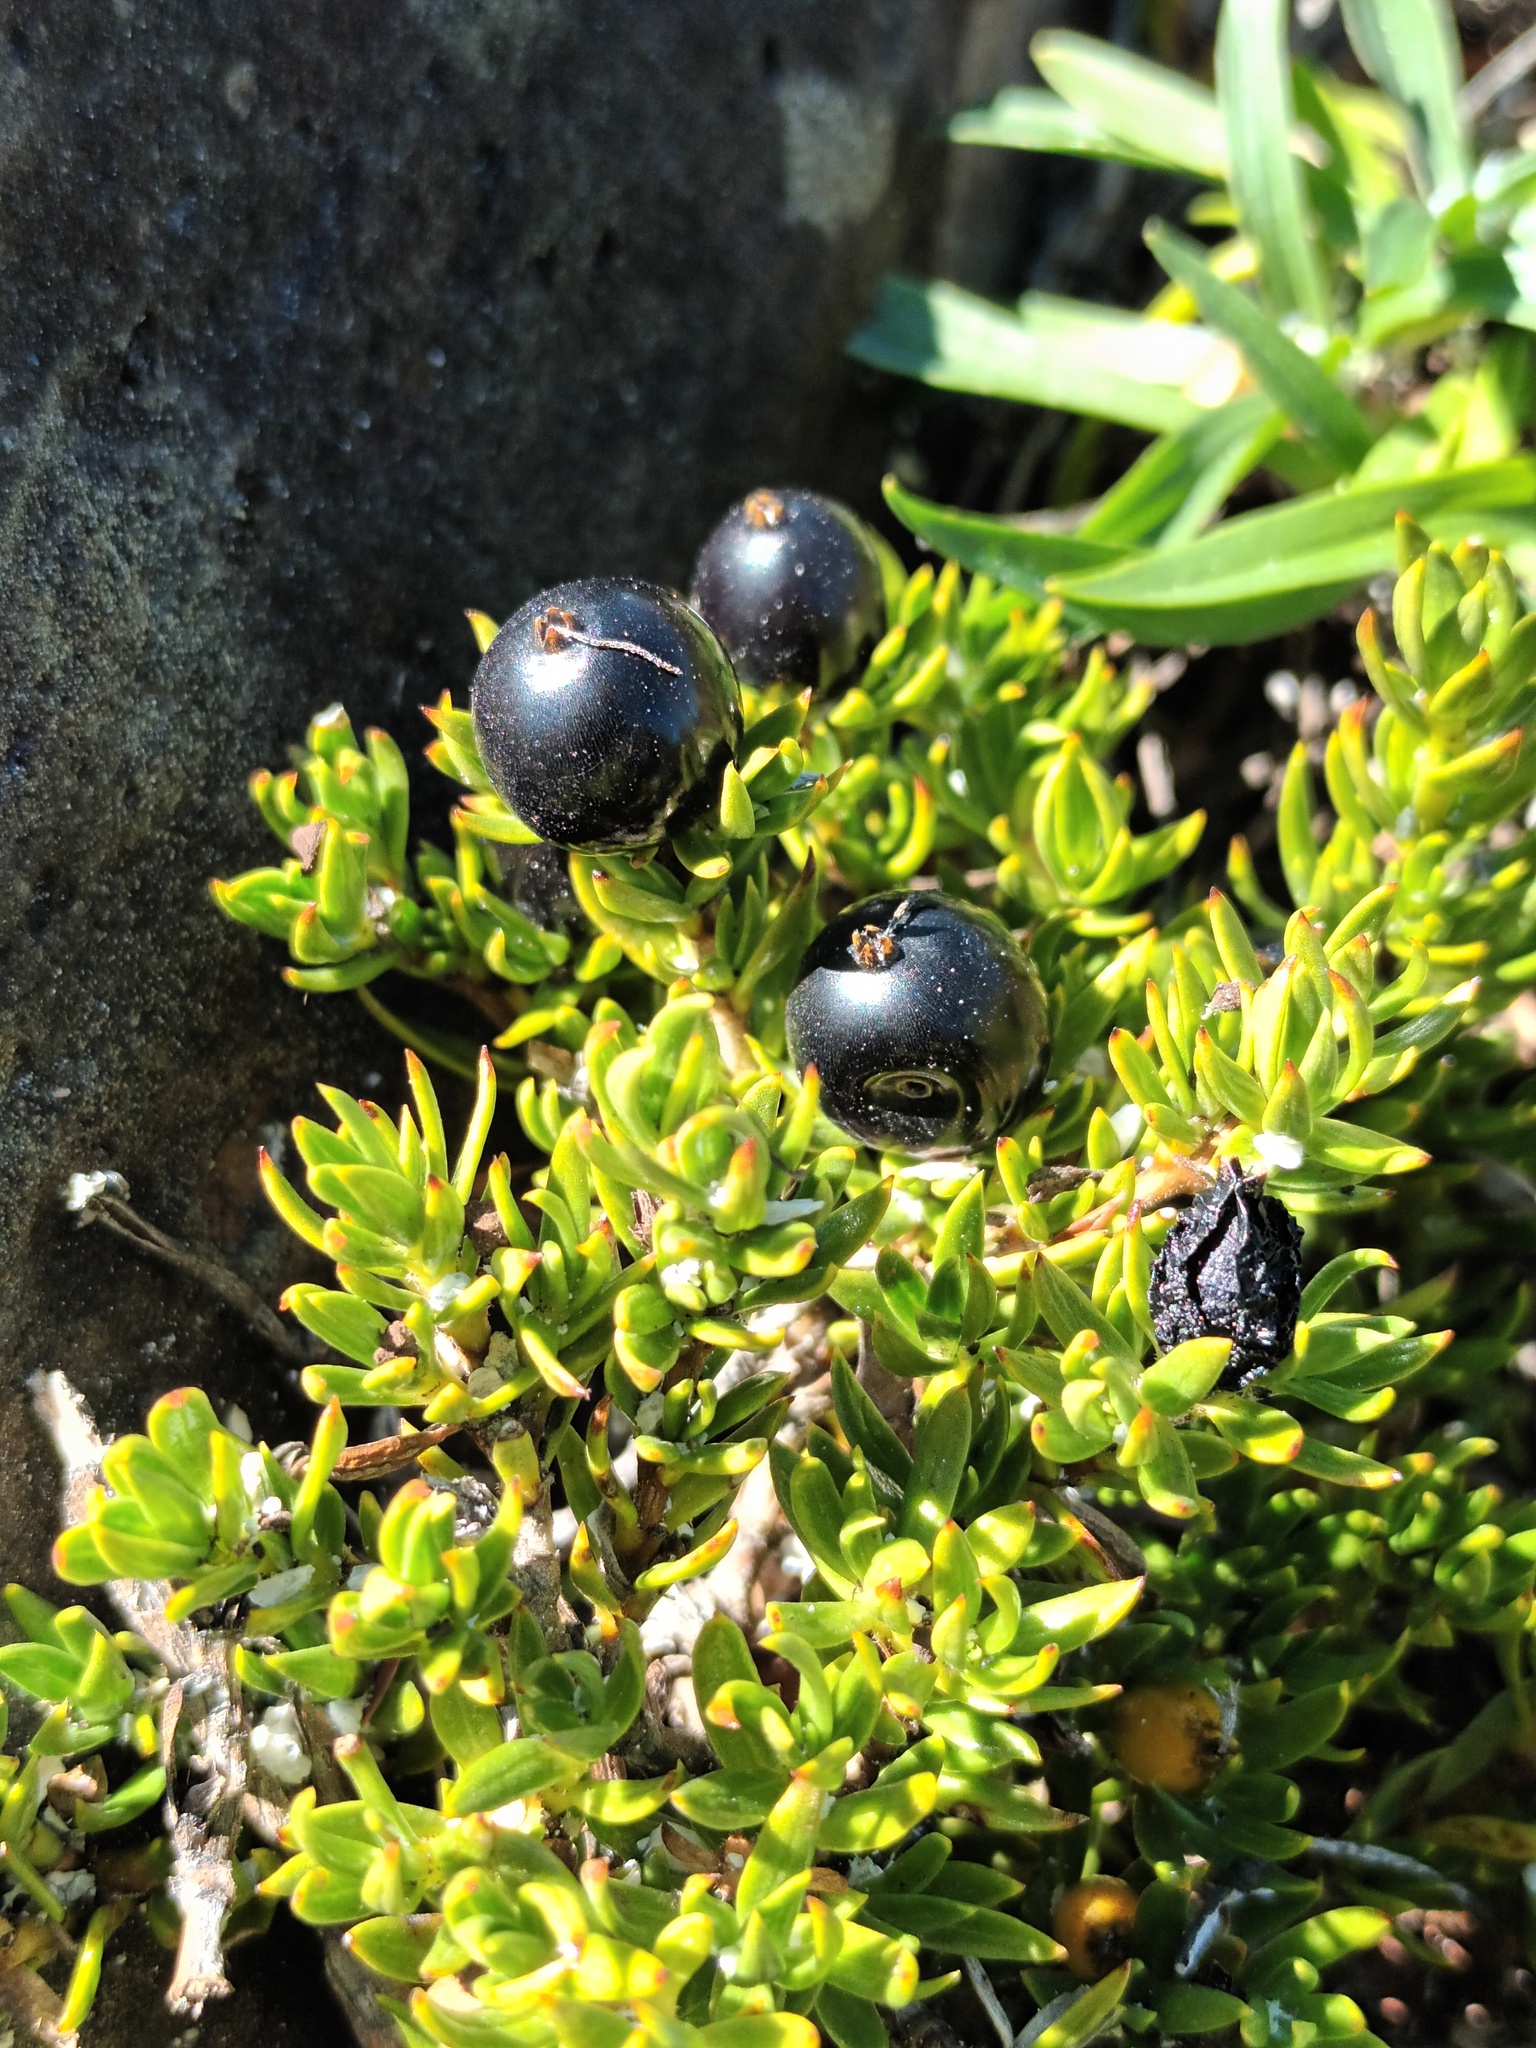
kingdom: Plantae
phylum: Tracheophyta
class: Magnoliopsida
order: Gentianales
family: Rubiaceae
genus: Coprosma
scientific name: Coprosma ernodeoides
